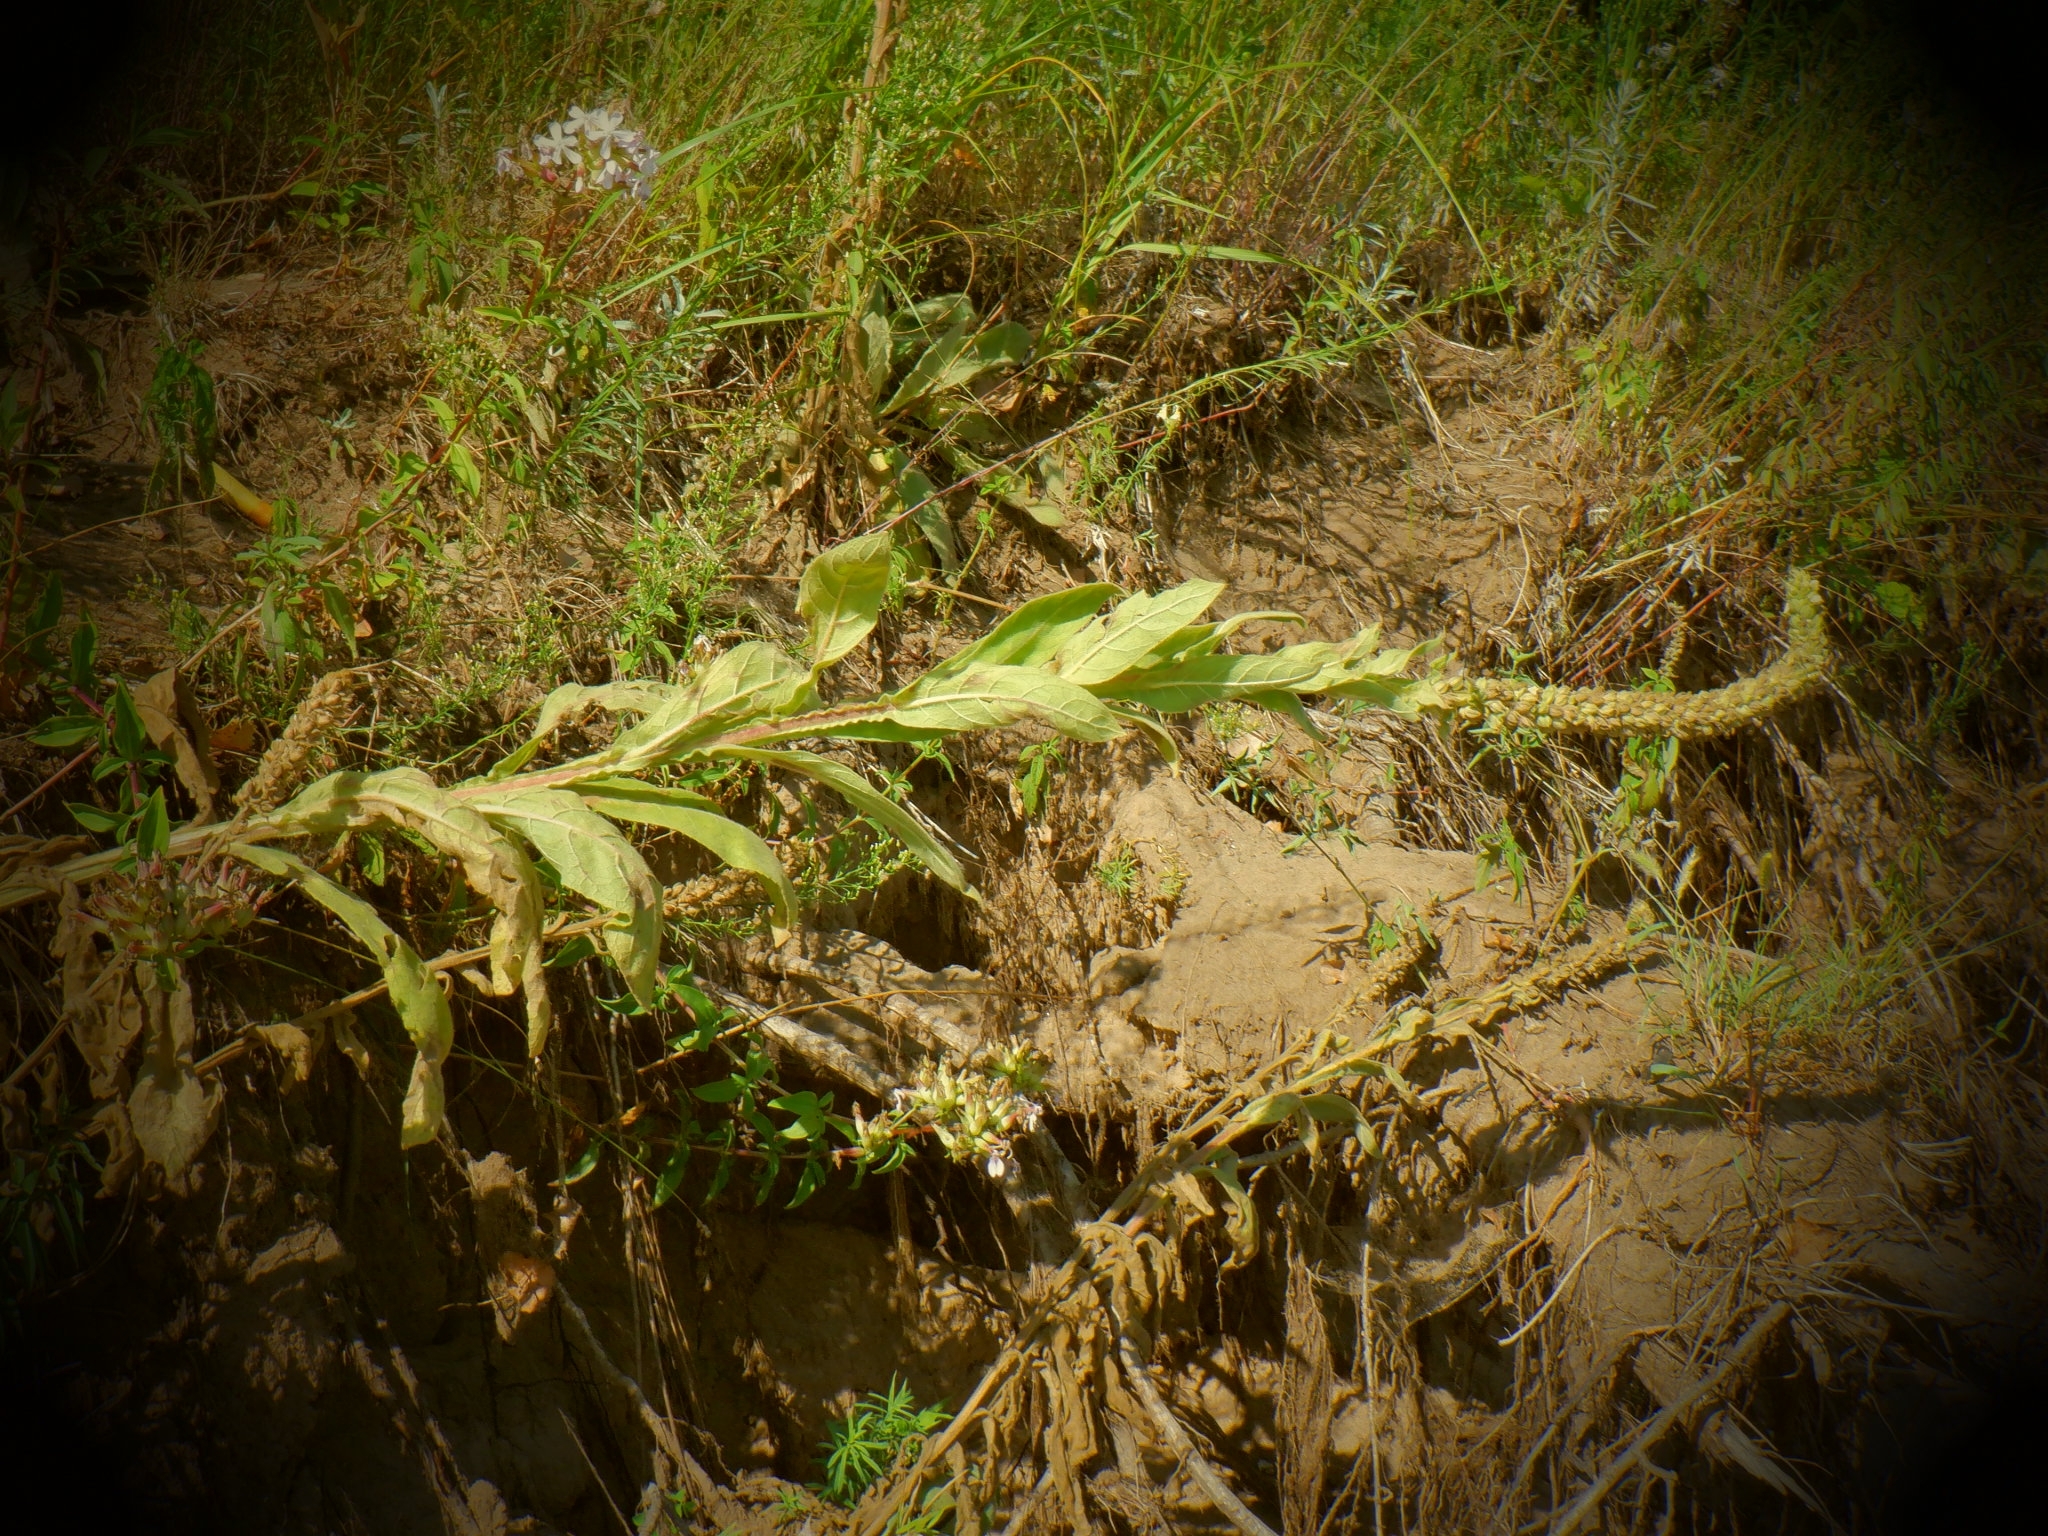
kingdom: Plantae
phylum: Tracheophyta
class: Magnoliopsida
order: Lamiales
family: Scrophulariaceae
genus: Verbascum
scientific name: Verbascum thapsus
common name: Common mullein
